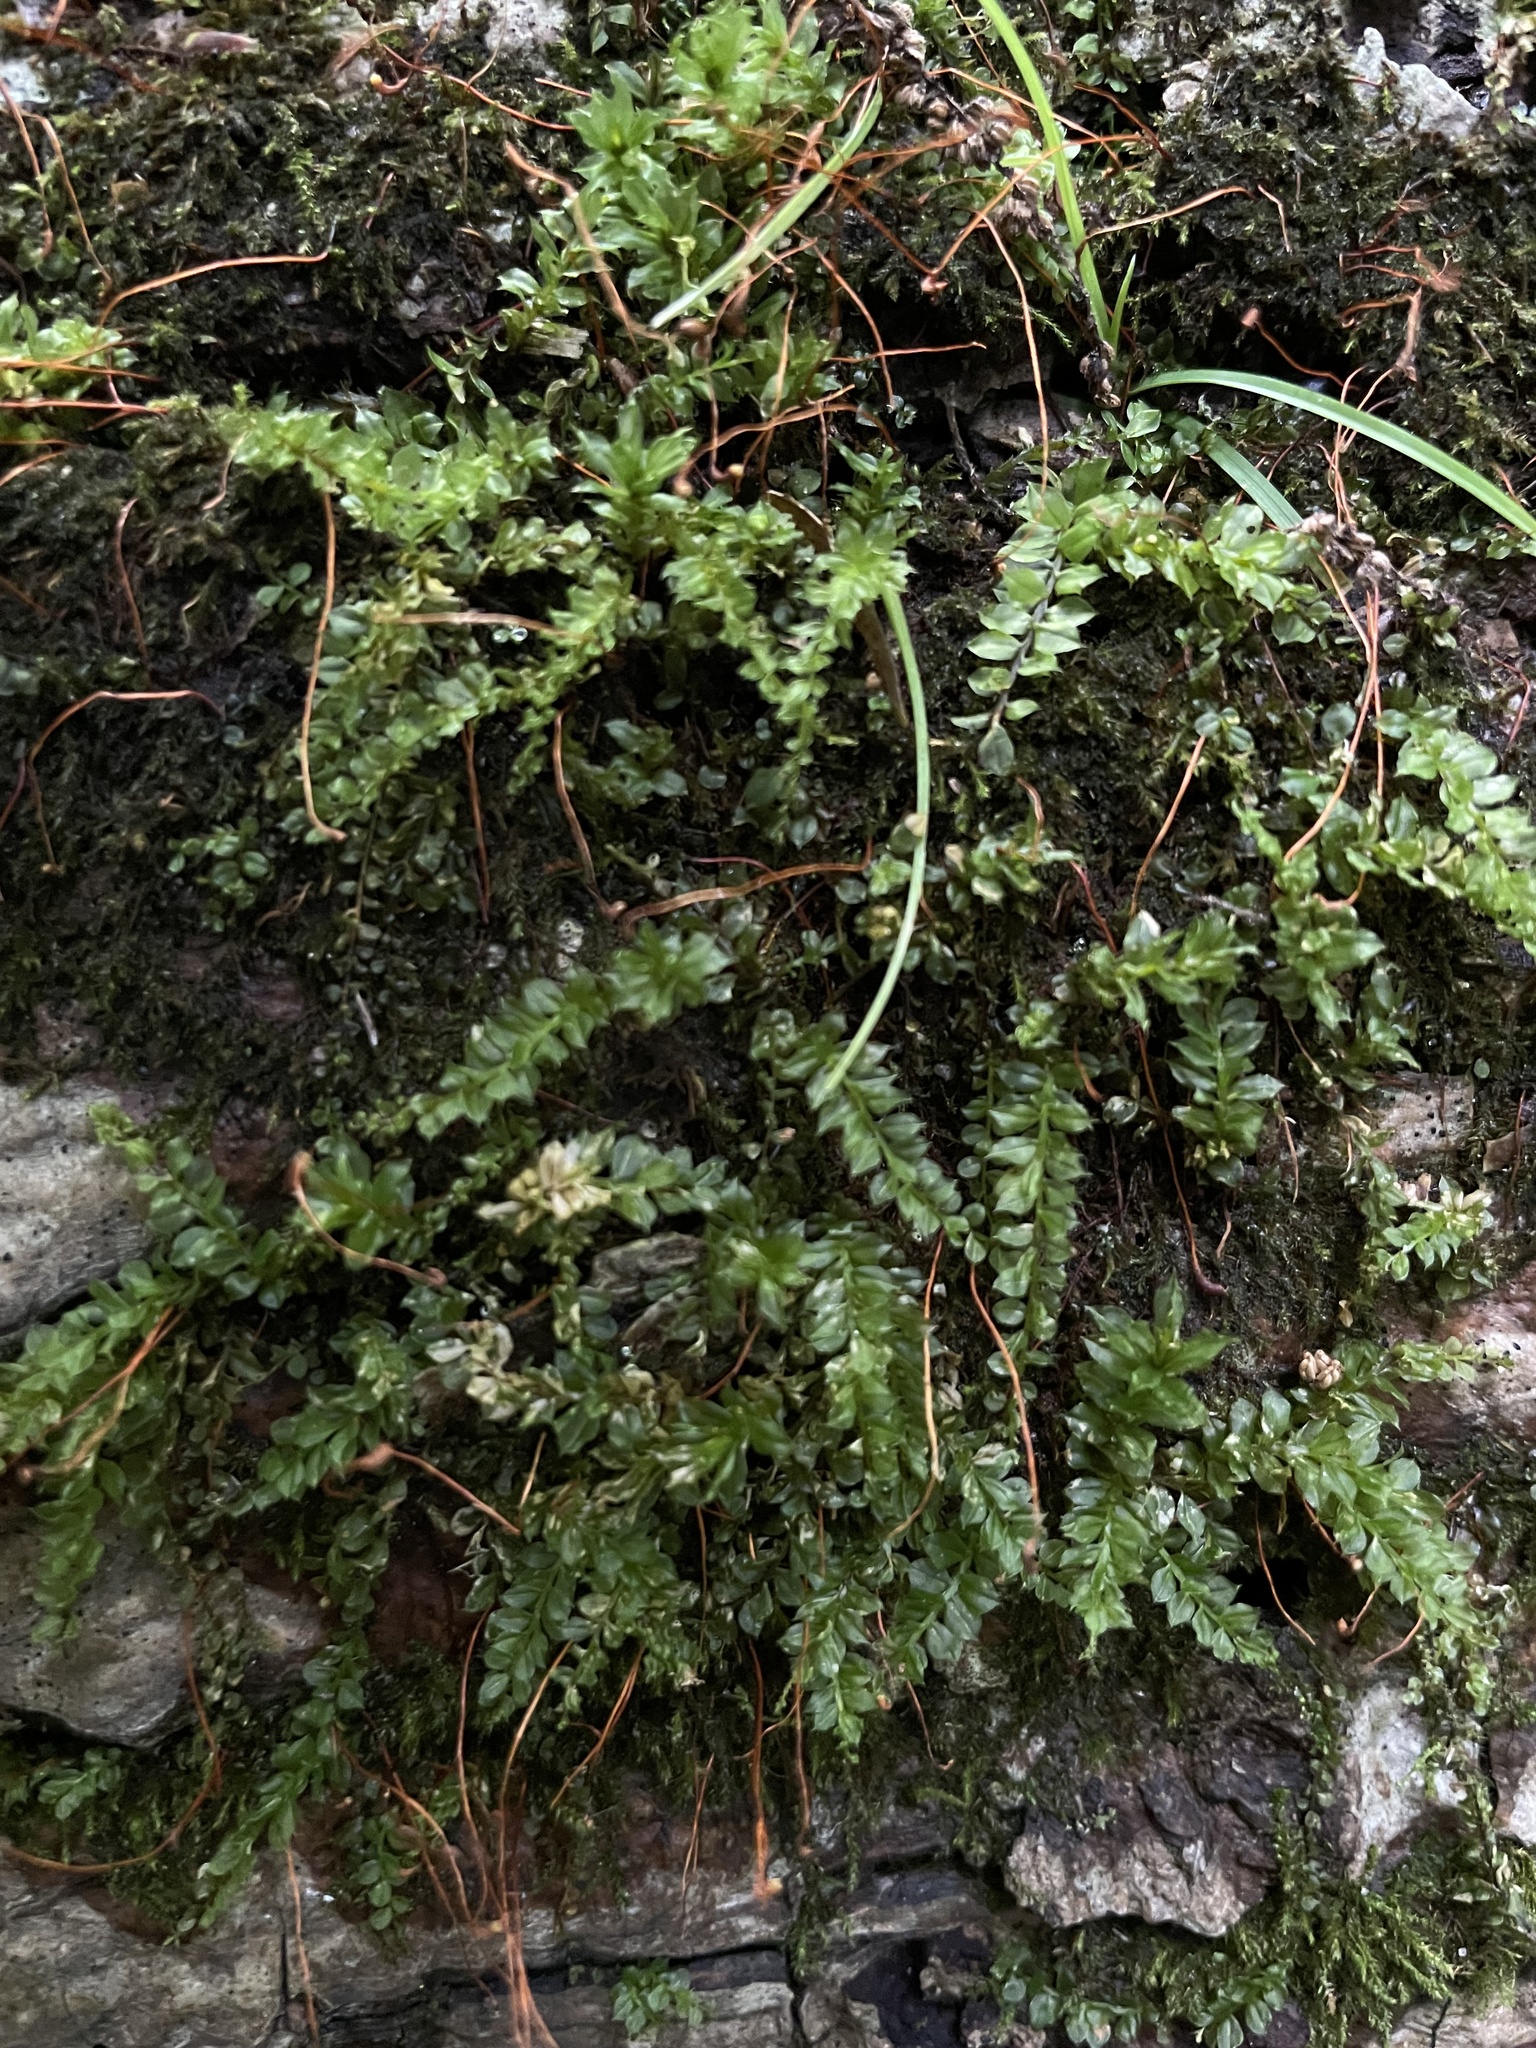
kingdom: Plantae
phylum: Bryophyta
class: Bryopsida
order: Bryales
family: Mniaceae
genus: Plagiomnium
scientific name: Plagiomnium cuspidatum
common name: Woodsy leafy moss
